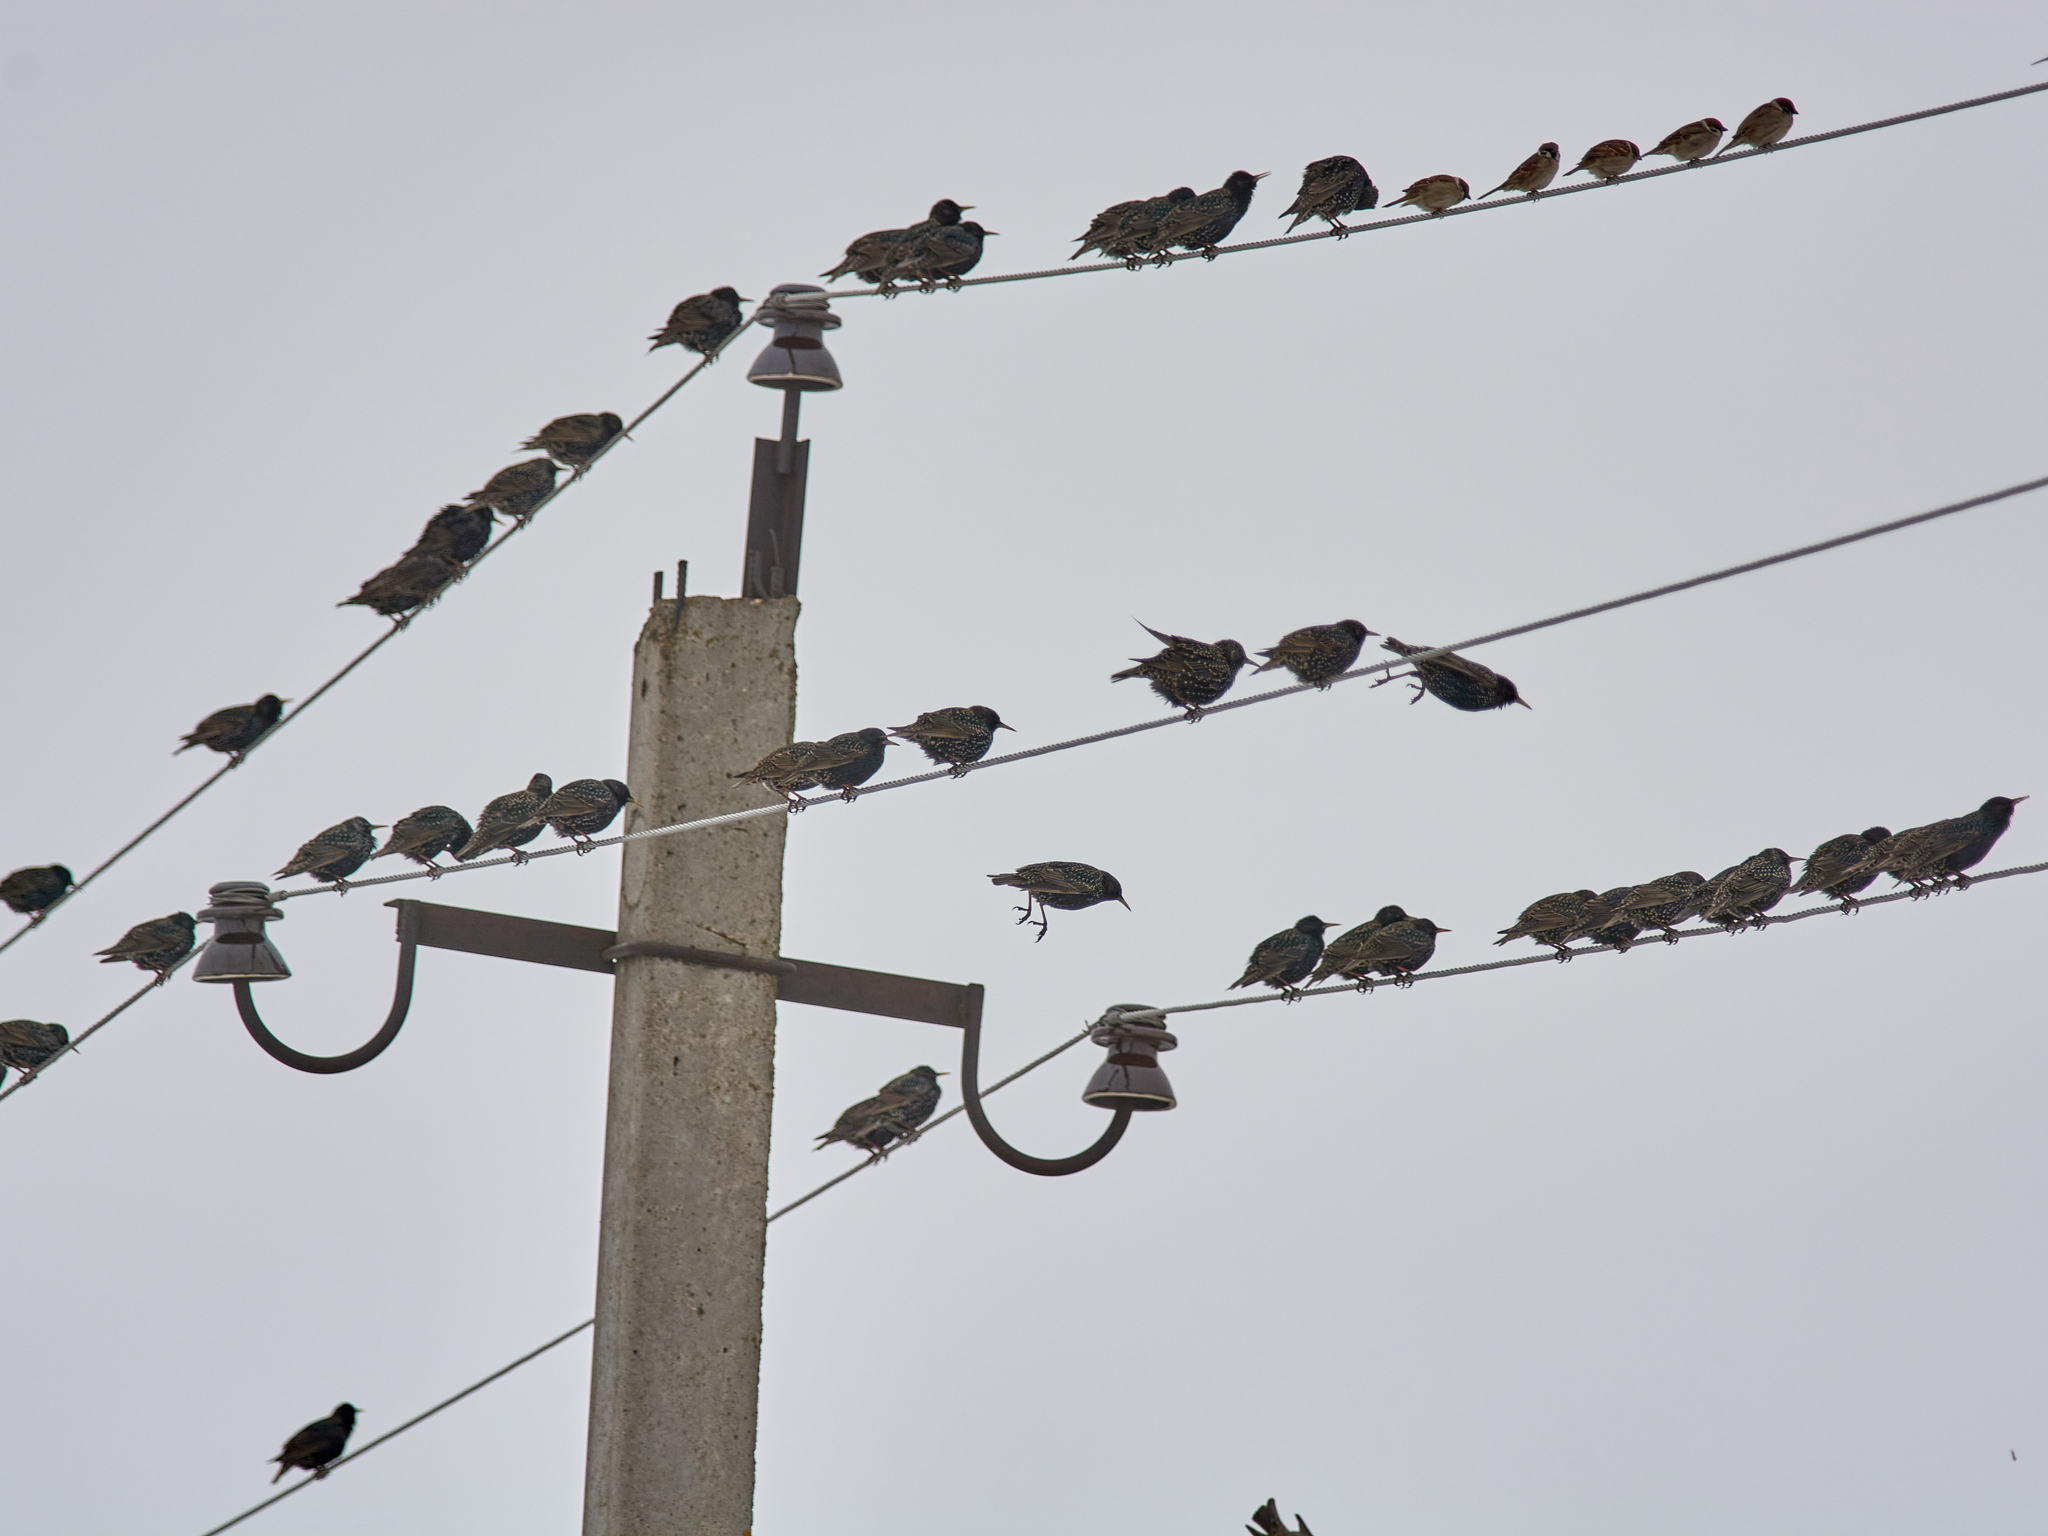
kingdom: Animalia
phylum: Chordata
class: Aves
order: Passeriformes
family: Sturnidae
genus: Sturnus
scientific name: Sturnus vulgaris
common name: Common starling
